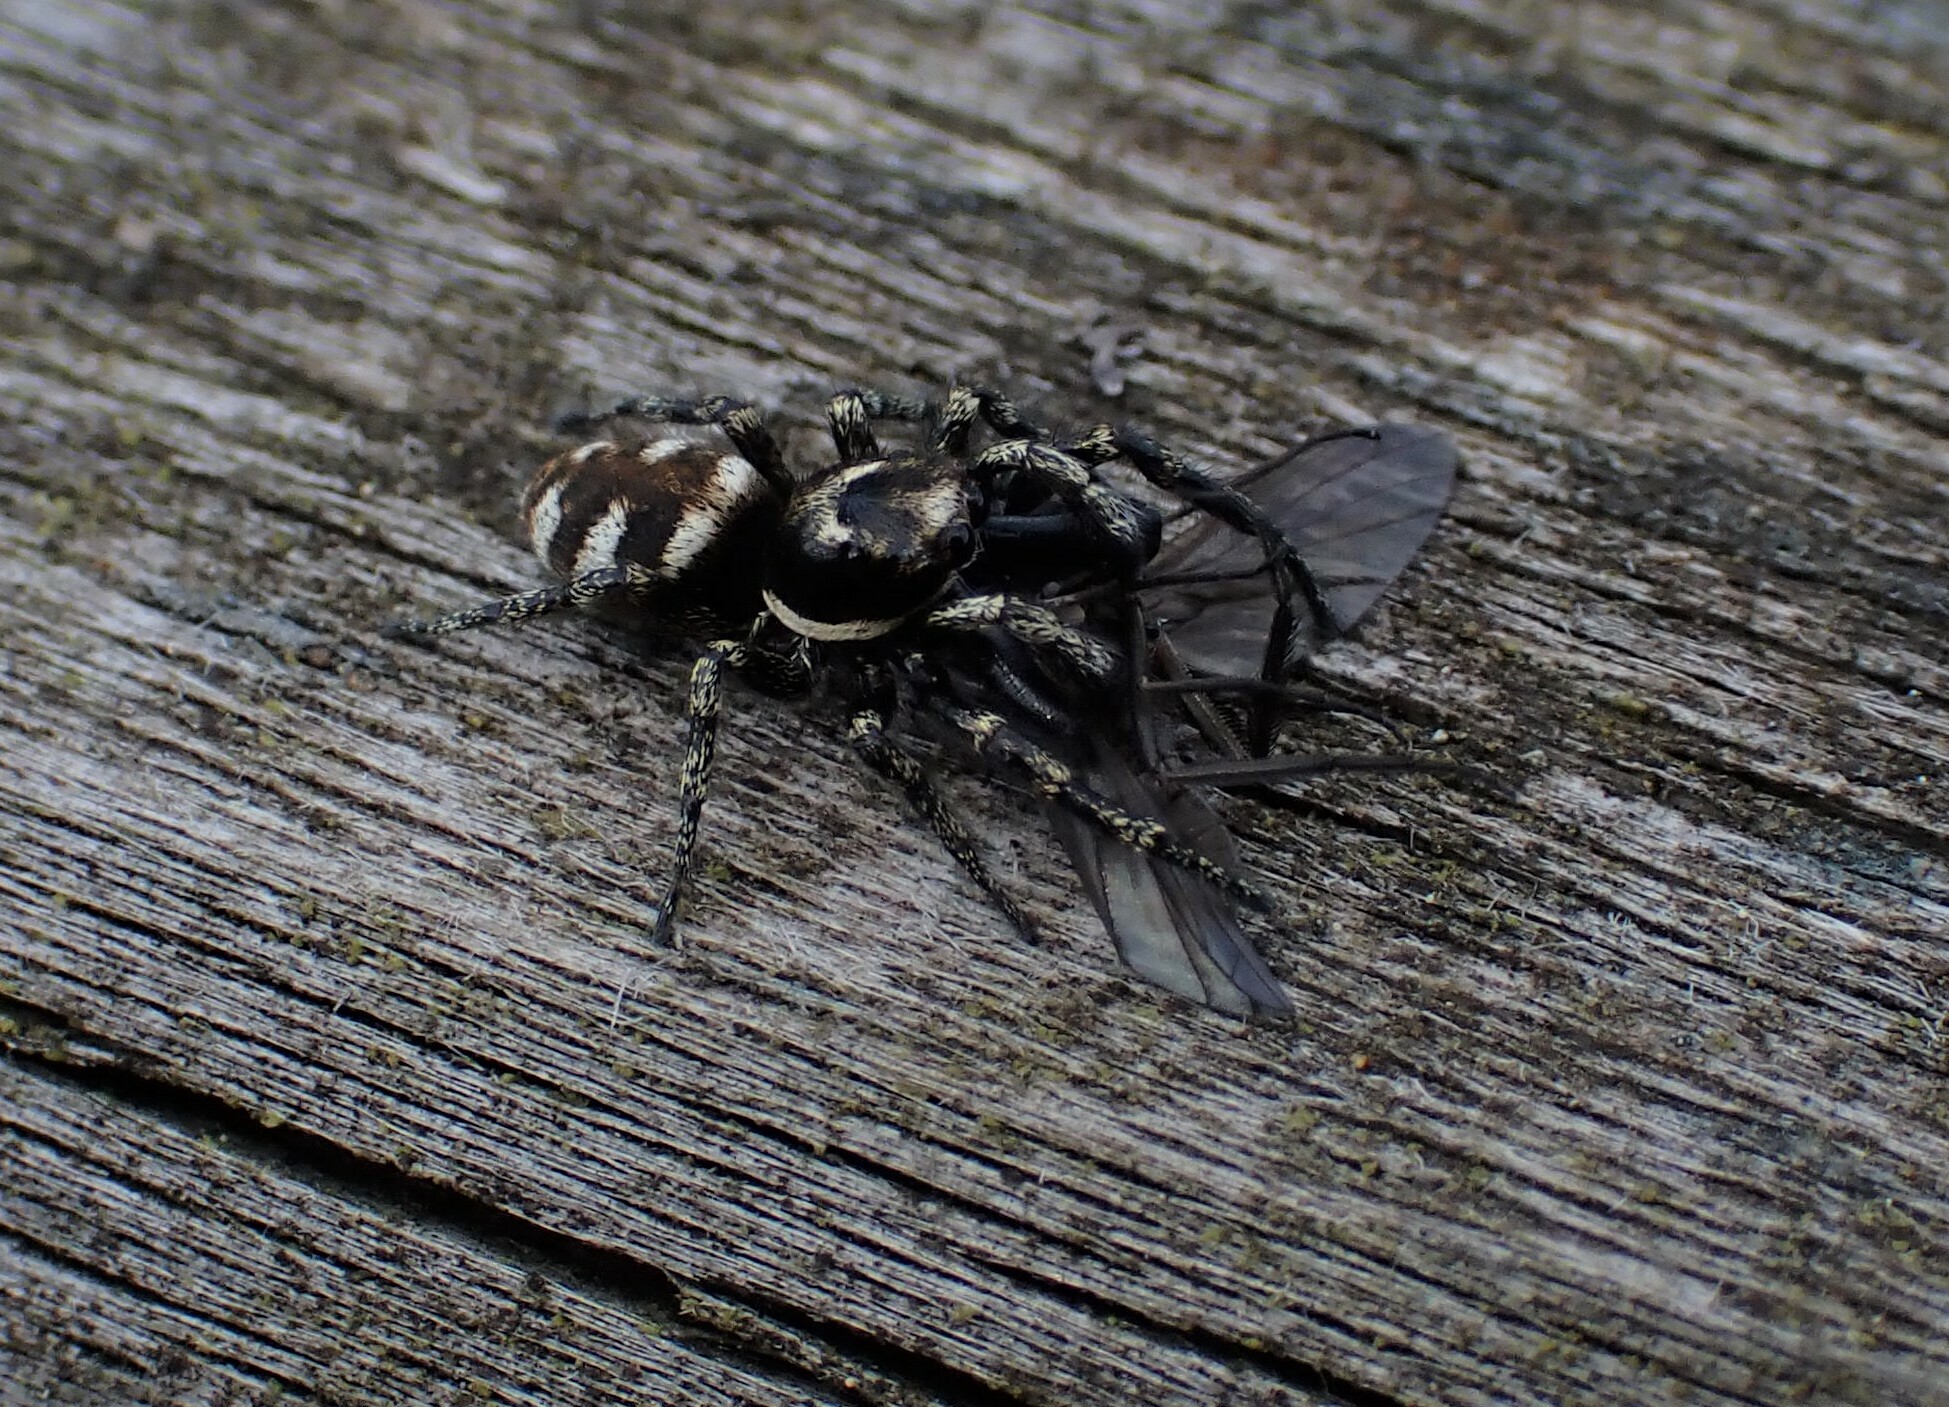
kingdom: Animalia
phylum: Arthropoda
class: Arachnida
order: Araneae
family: Salticidae
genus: Salticus
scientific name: Salticus scenicus
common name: Zebra jumper
